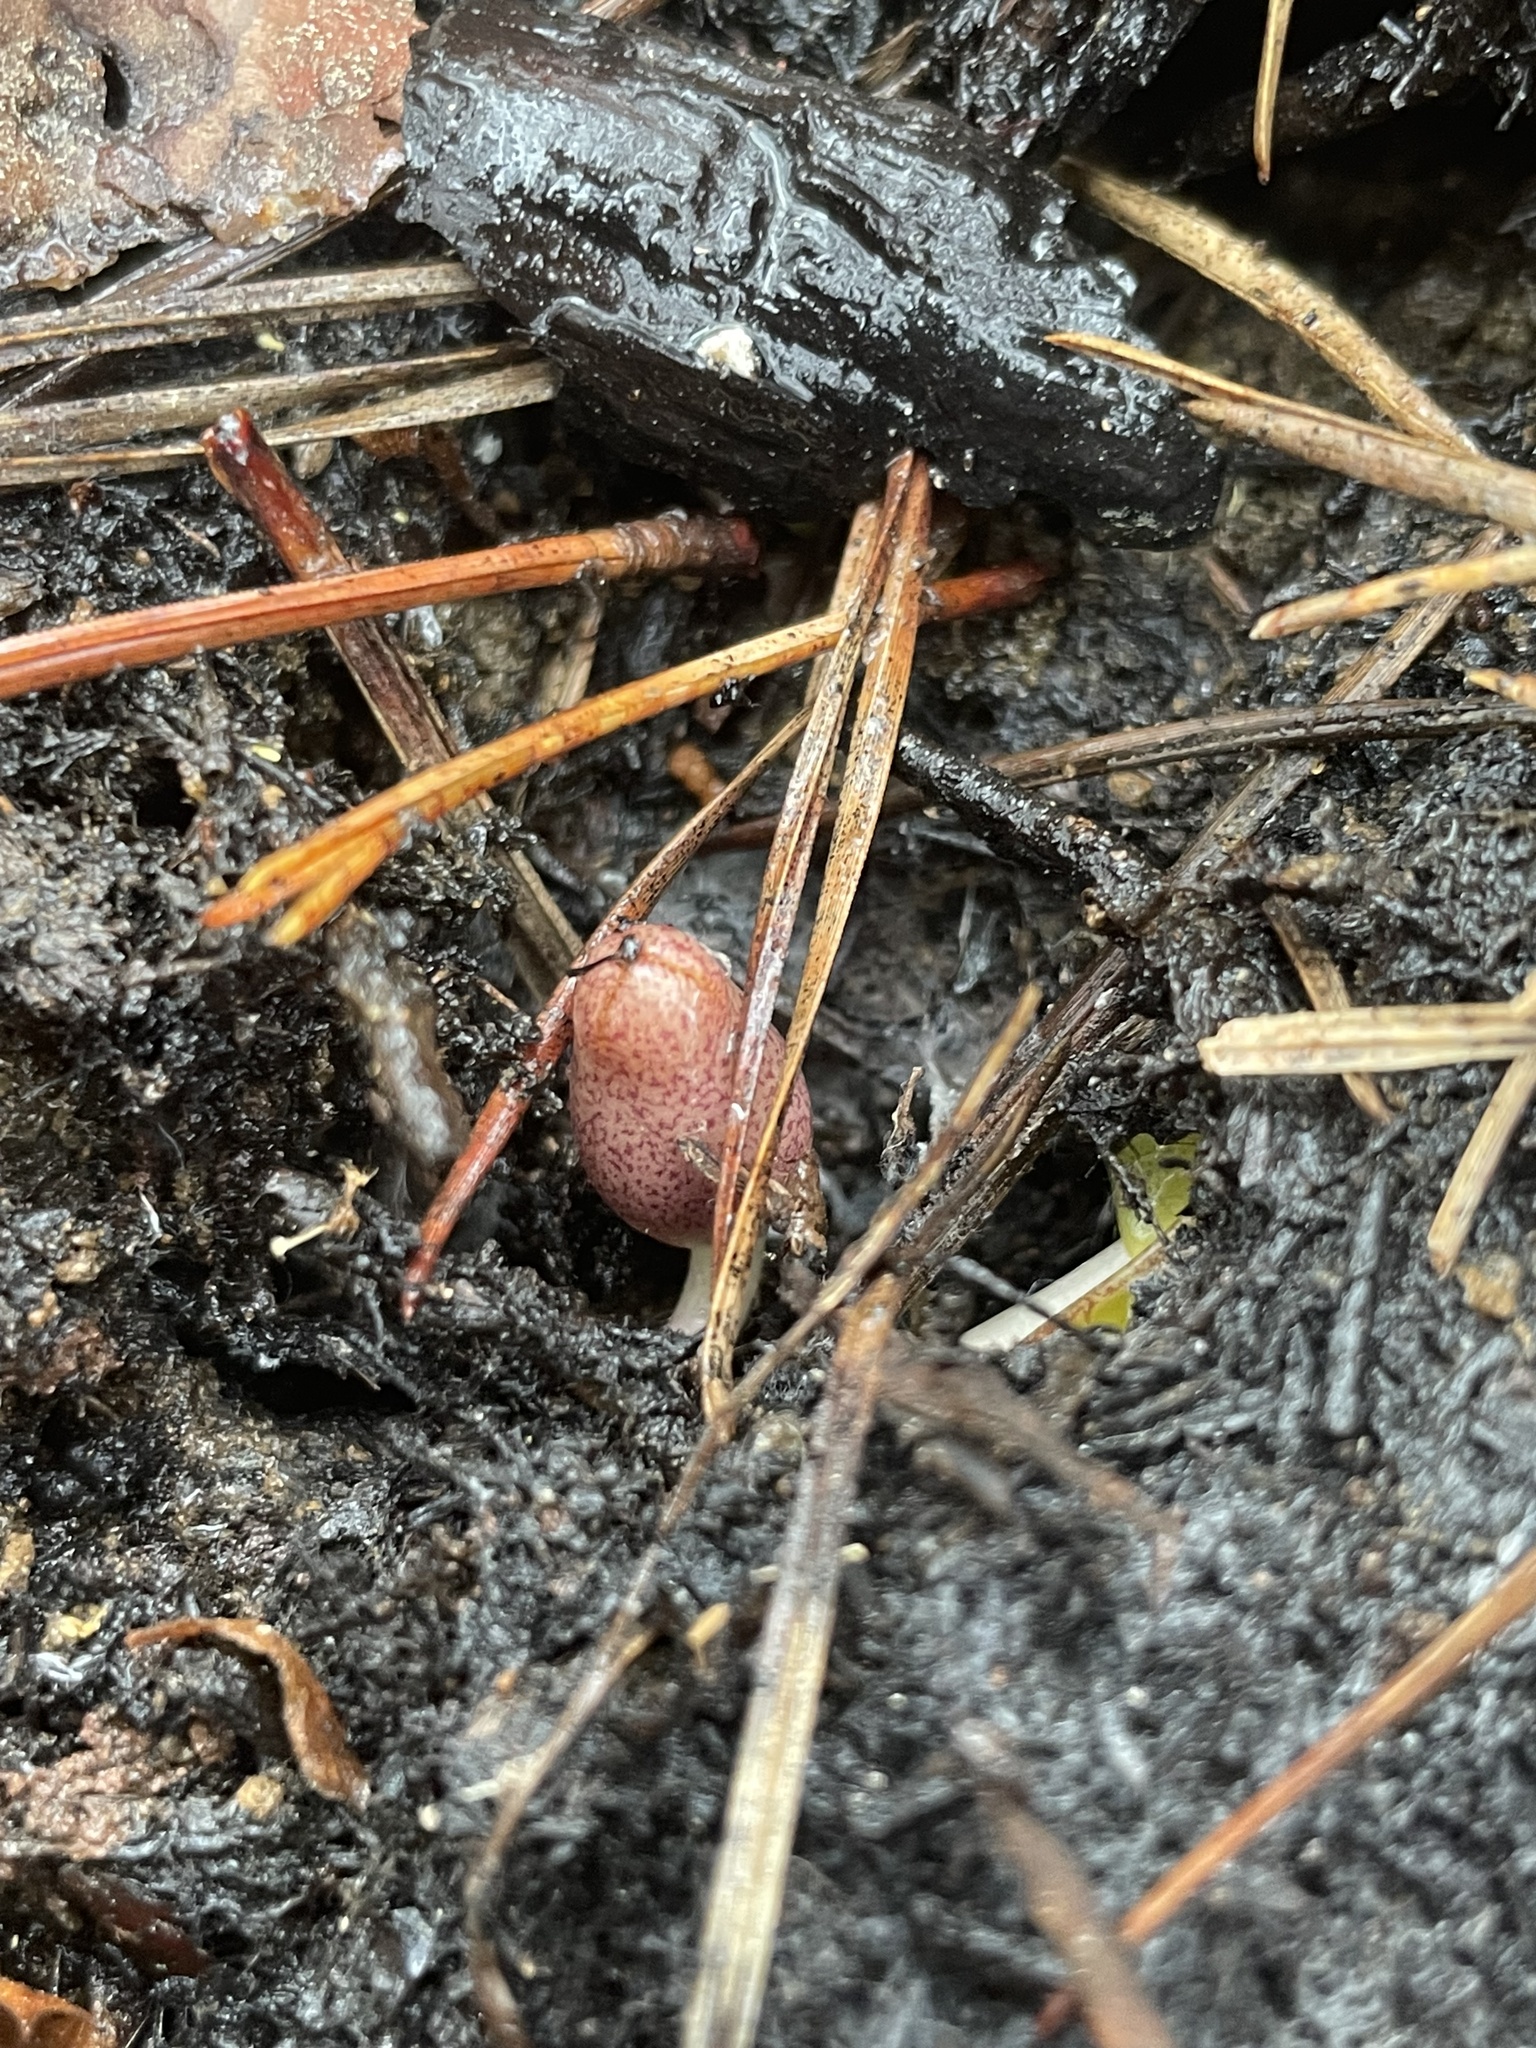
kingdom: Plantae
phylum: Tracheophyta
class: Magnoliopsida
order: Piperales
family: Aristolochiaceae
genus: Hexastylis
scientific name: Hexastylis arifolia
